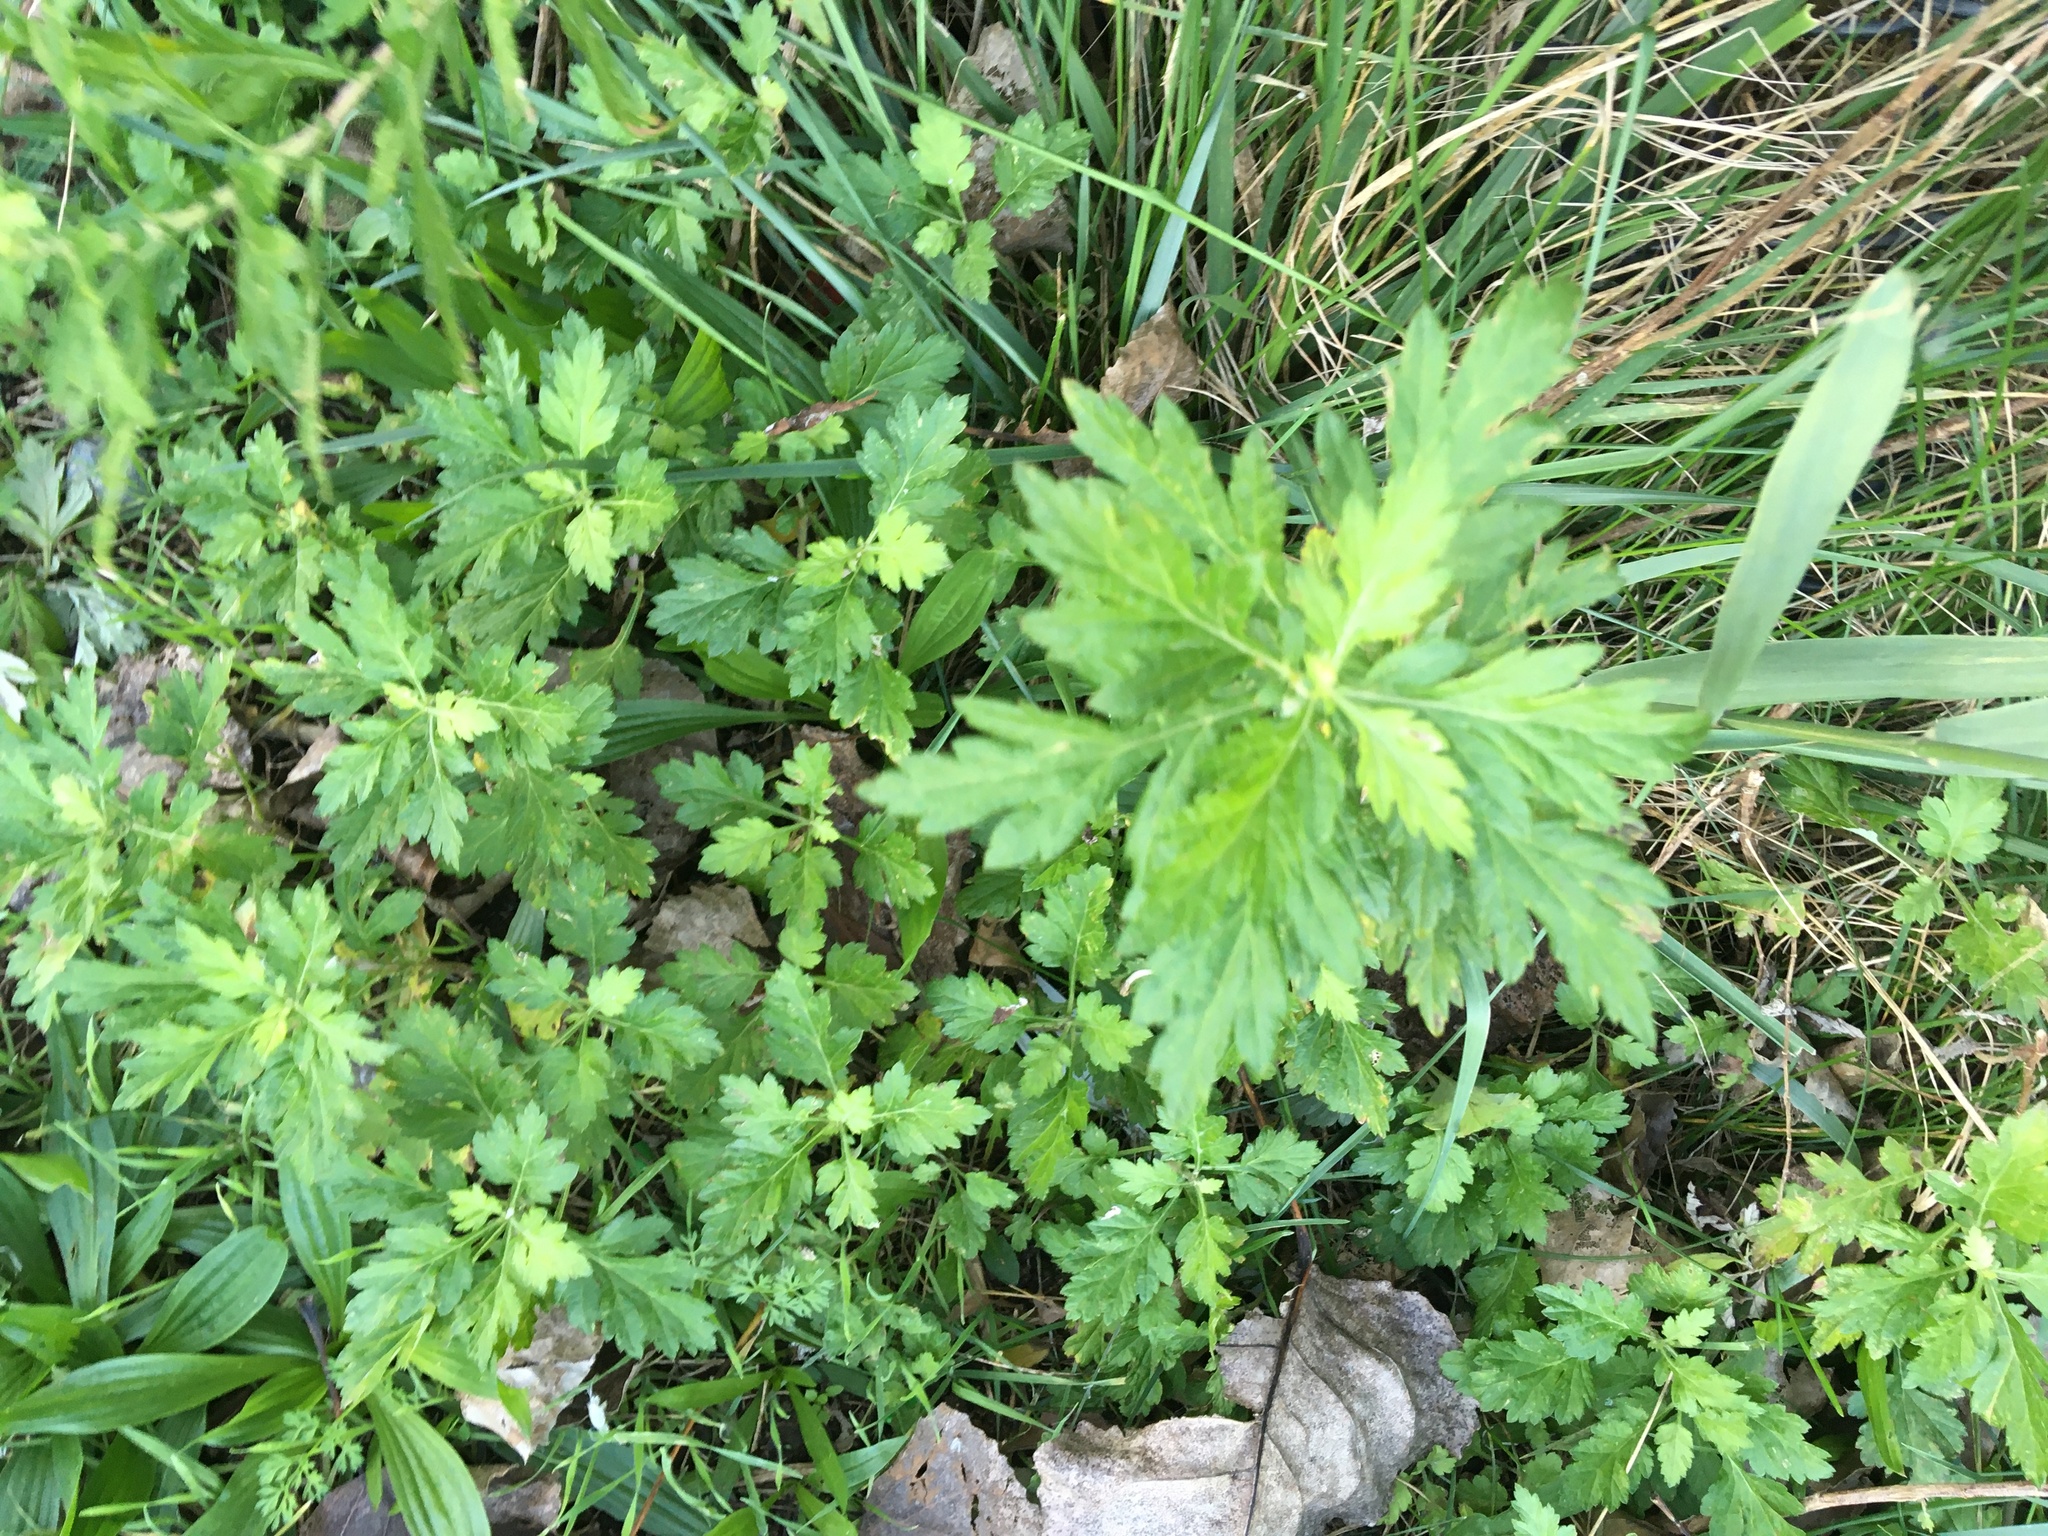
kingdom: Plantae
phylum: Tracheophyta
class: Magnoliopsida
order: Asterales
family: Asteraceae
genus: Artemisia
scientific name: Artemisia vulgaris
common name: Mugwort
